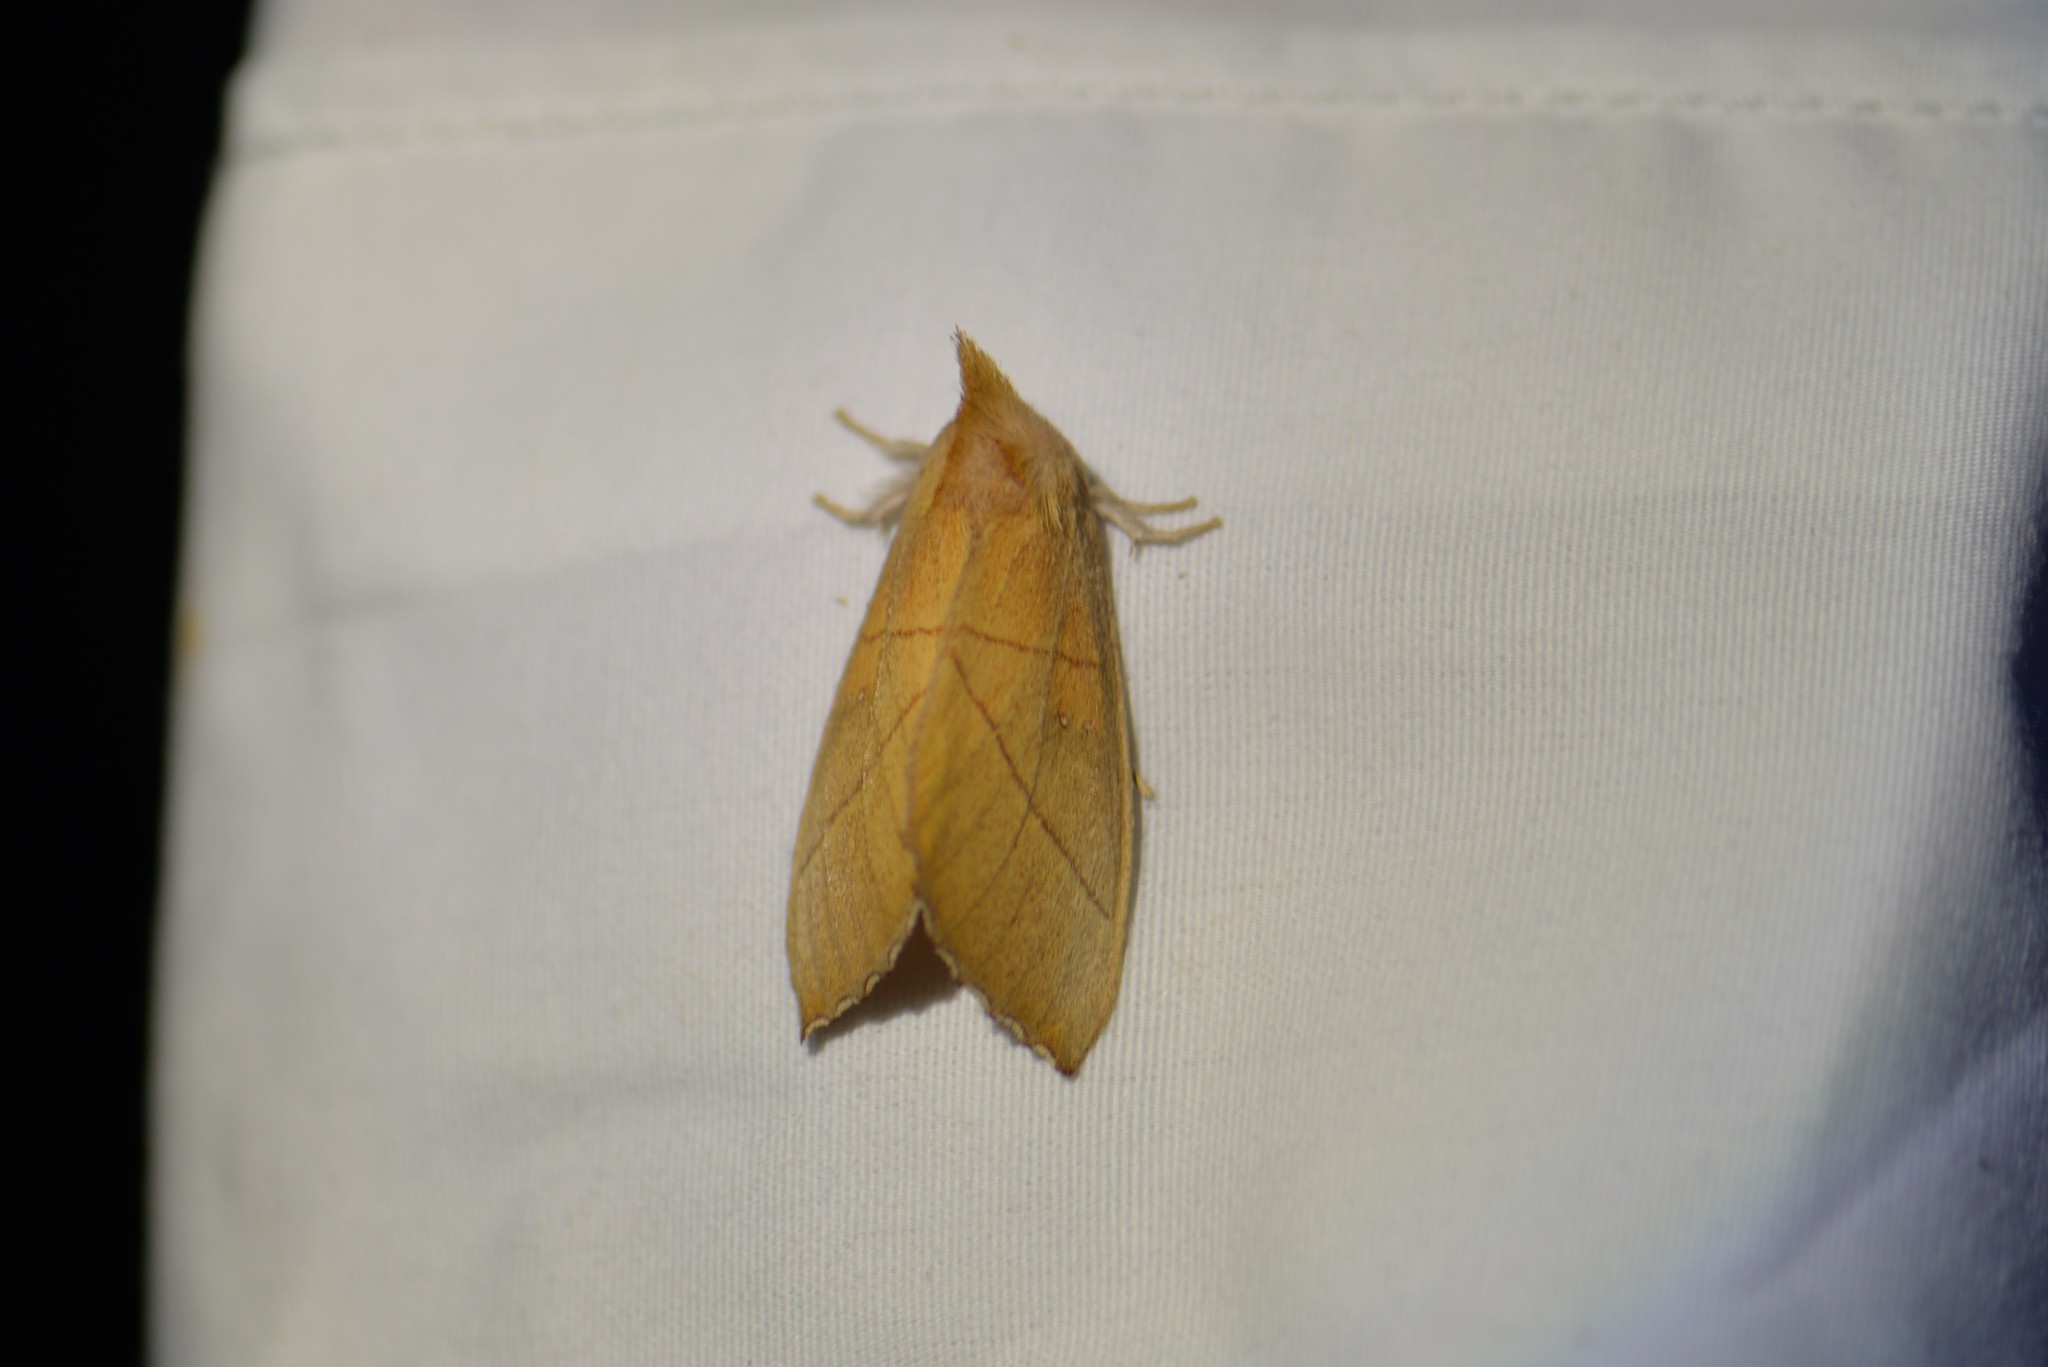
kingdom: Animalia
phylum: Arthropoda
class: Insecta
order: Lepidoptera
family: Notodontidae
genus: Nadata
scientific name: Nadata gibbosa
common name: White-dotted prominent
